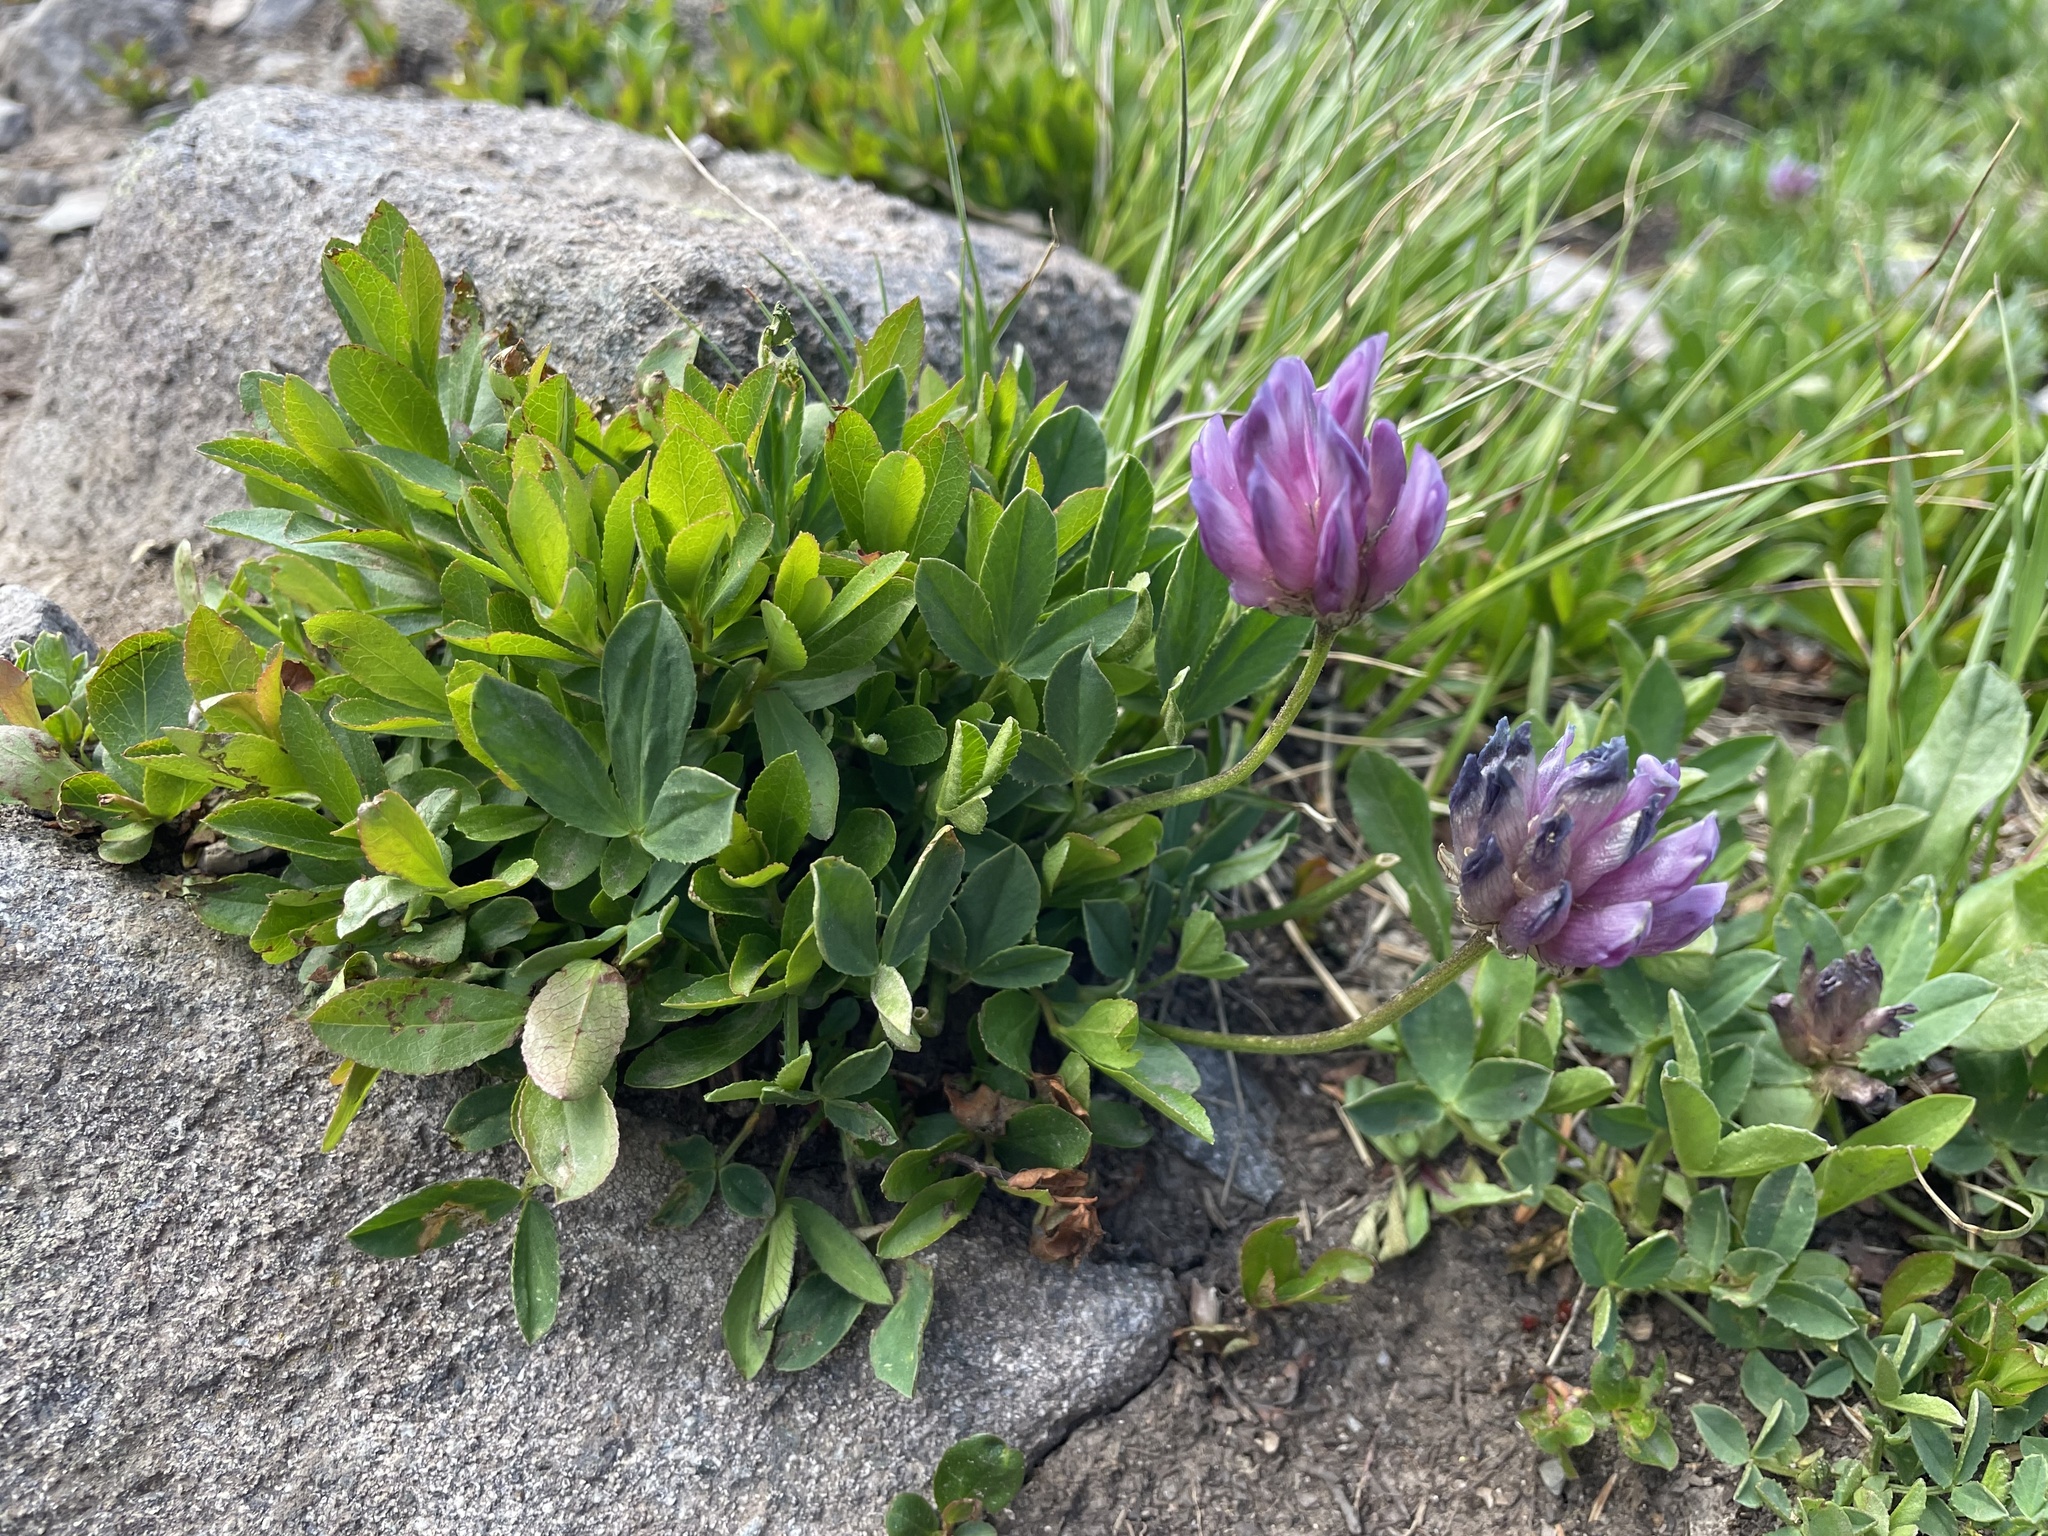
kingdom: Plantae
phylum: Tracheophyta
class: Magnoliopsida
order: Fabales
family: Fabaceae
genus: Trifolium
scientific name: Trifolium parryi
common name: Parry's clover
